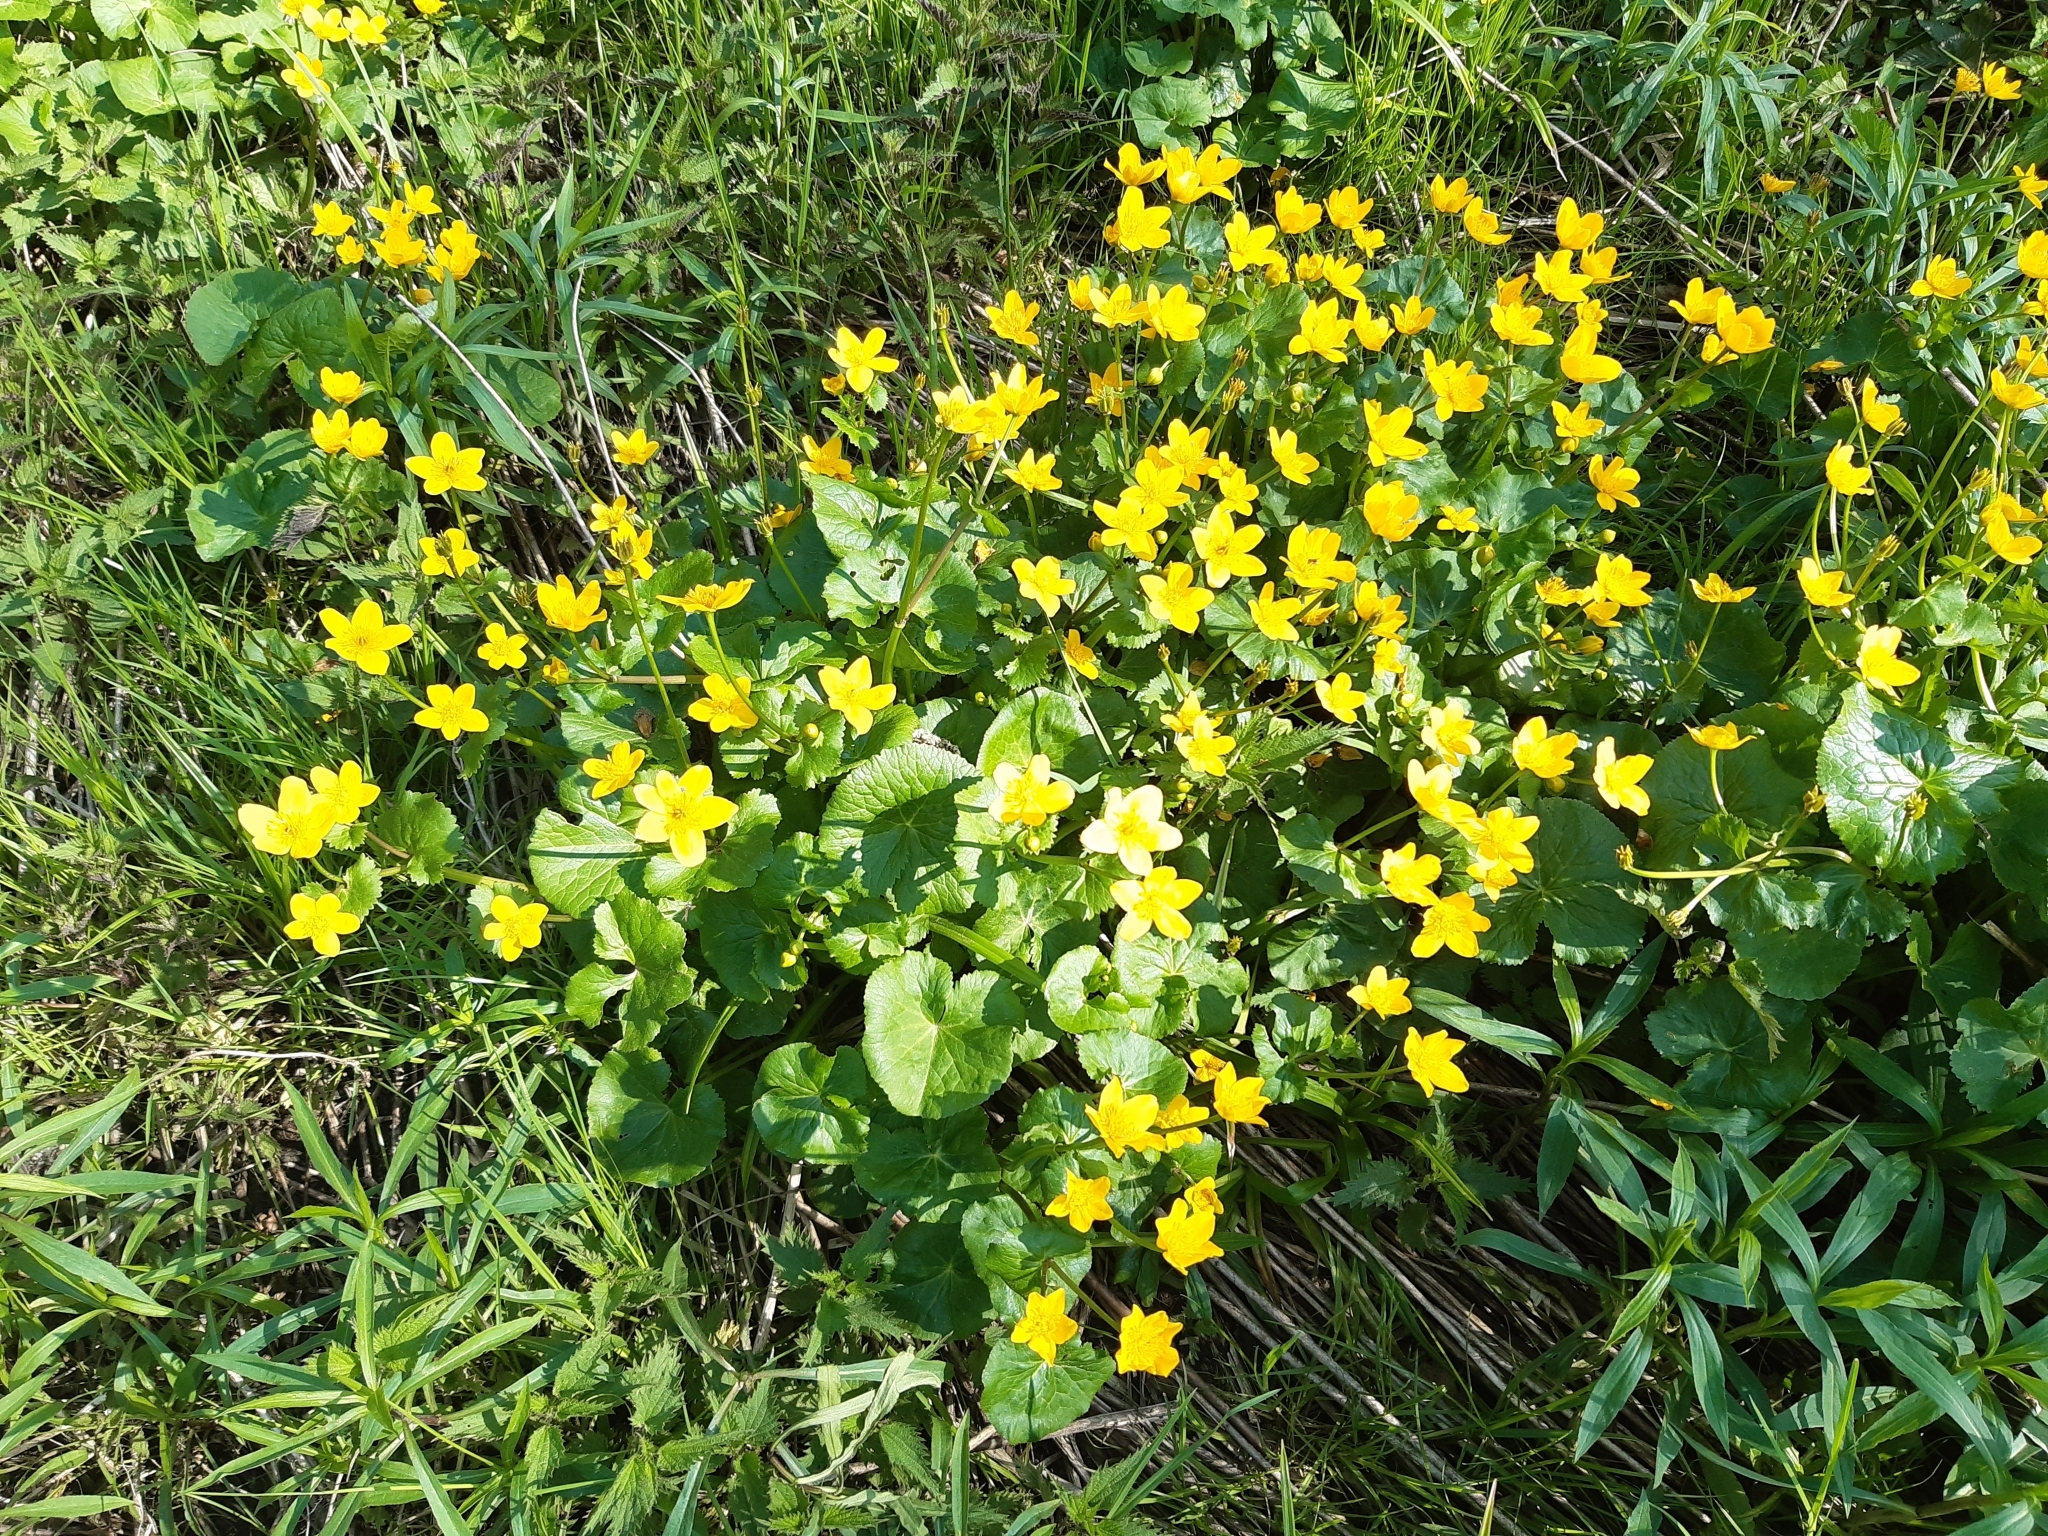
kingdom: Plantae
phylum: Tracheophyta
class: Magnoliopsida
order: Ranunculales
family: Ranunculaceae
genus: Caltha
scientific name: Caltha palustris
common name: Marsh marigold
